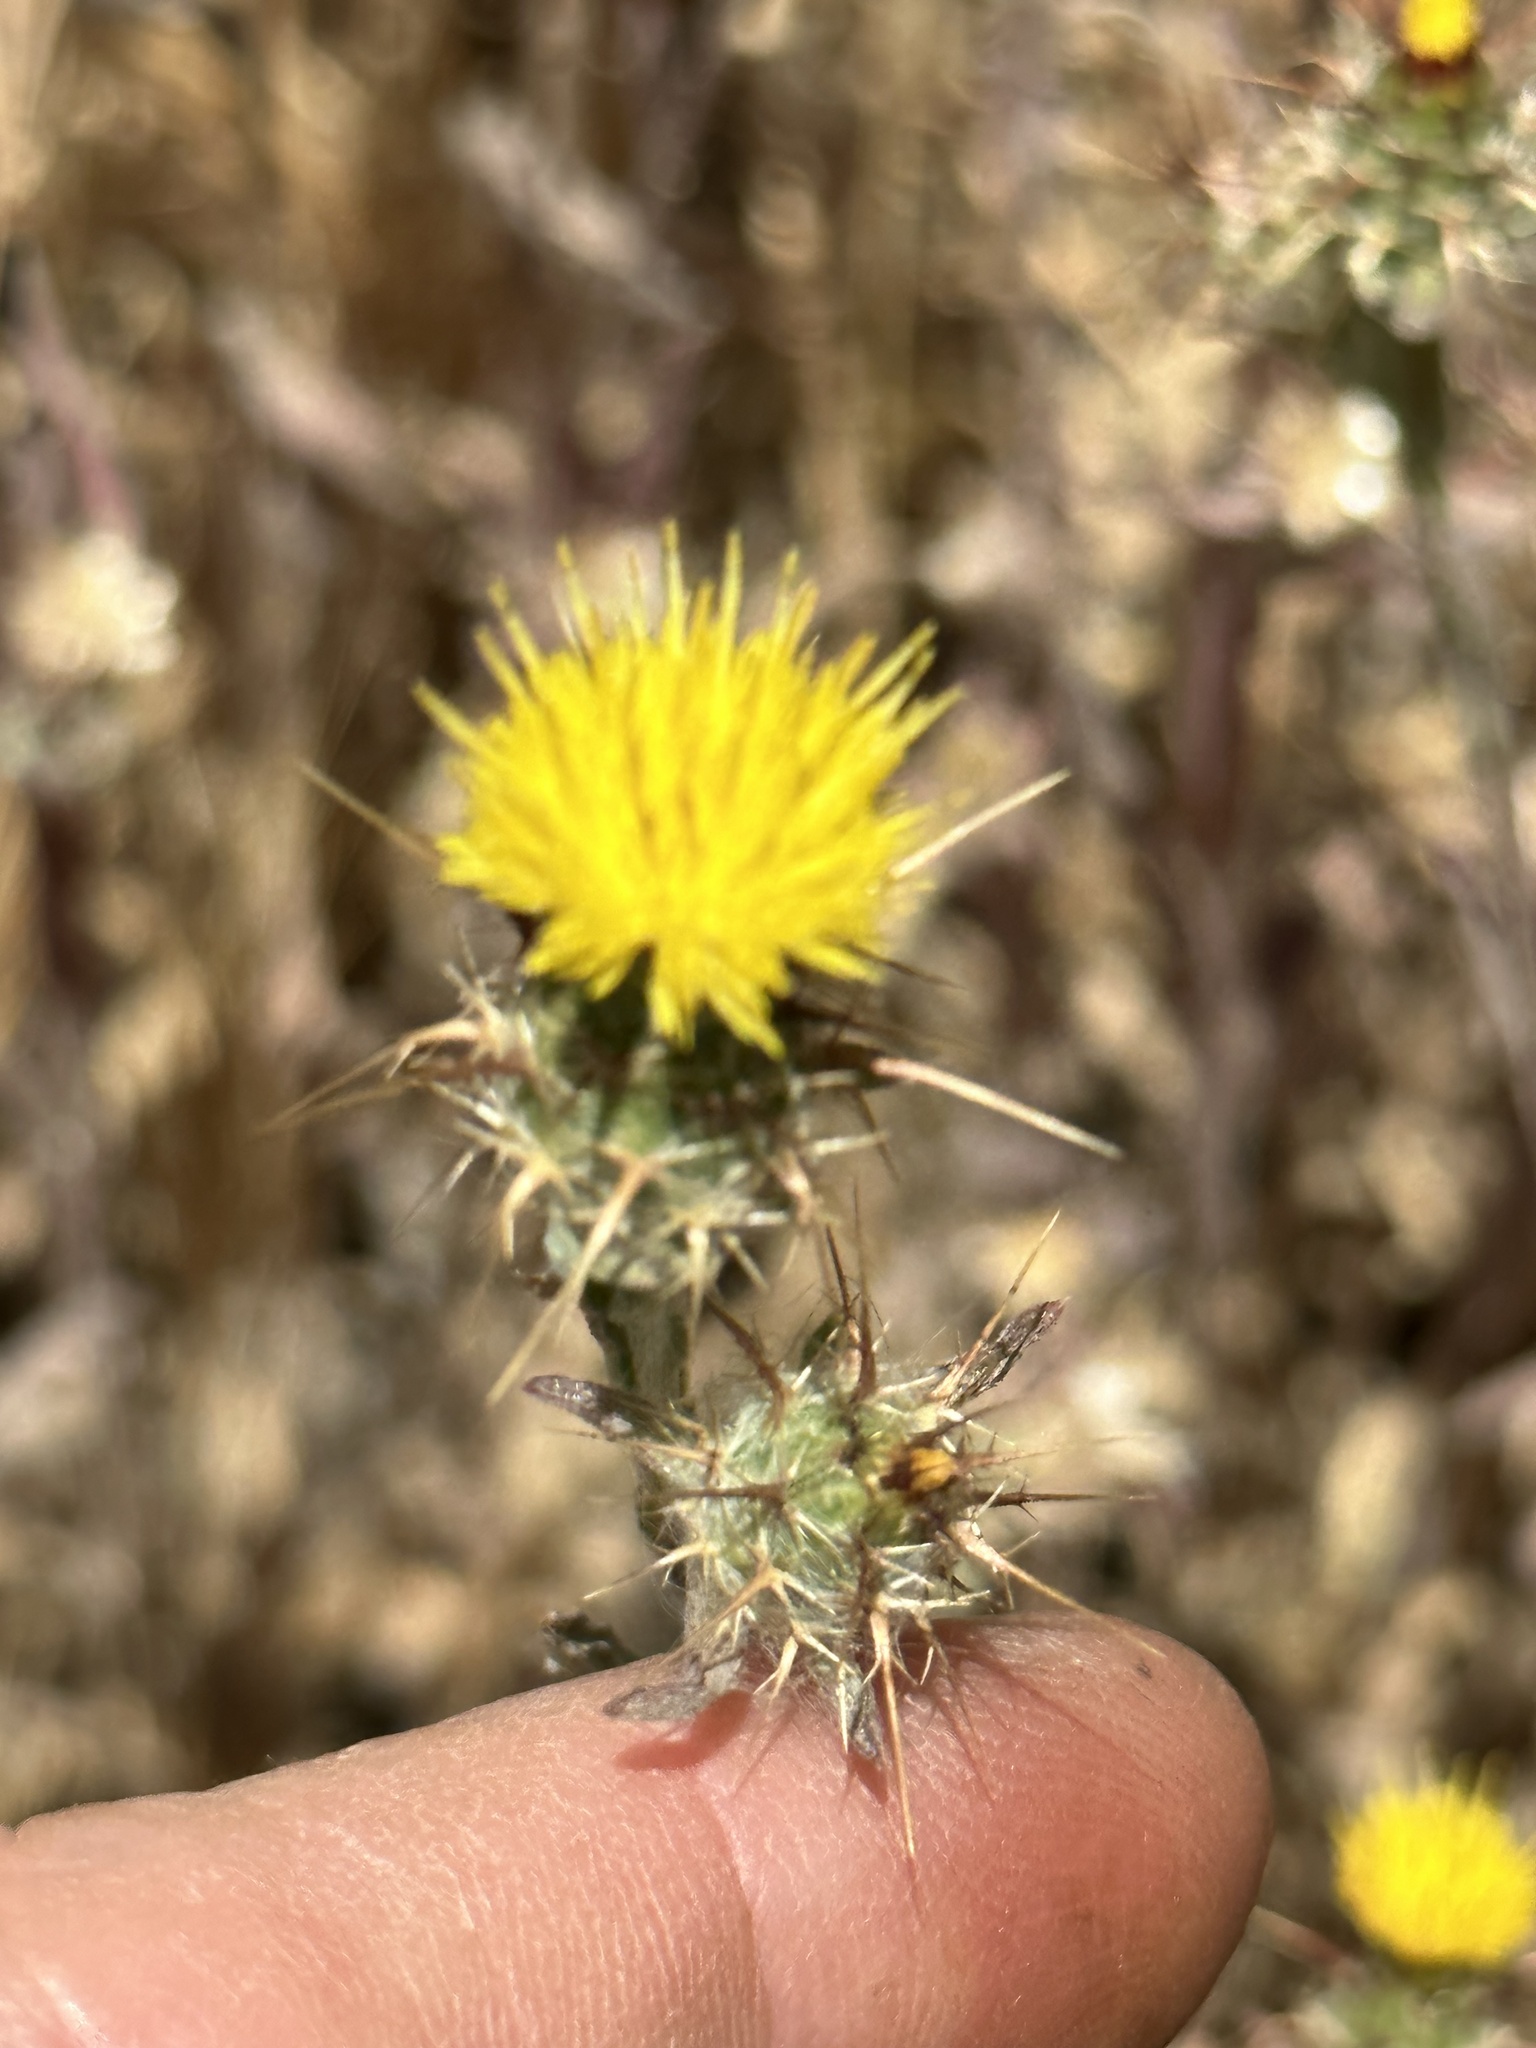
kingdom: Plantae
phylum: Tracheophyta
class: Magnoliopsida
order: Asterales
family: Asteraceae
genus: Centaurea
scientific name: Centaurea melitensis
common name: Maltese star-thistle
